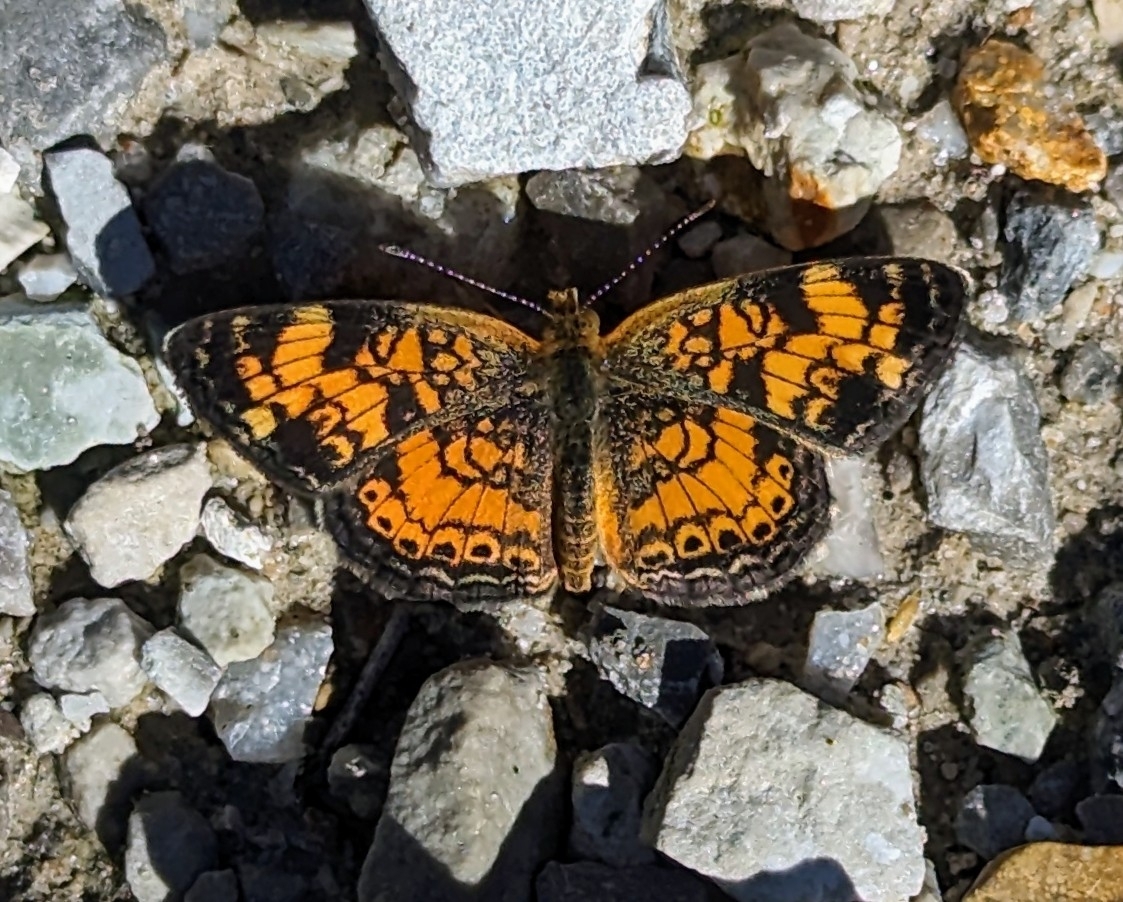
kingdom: Animalia
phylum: Arthropoda
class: Insecta
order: Lepidoptera
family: Nymphalidae
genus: Phyciodes
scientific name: Phyciodes tharos
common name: Pearl crescent
